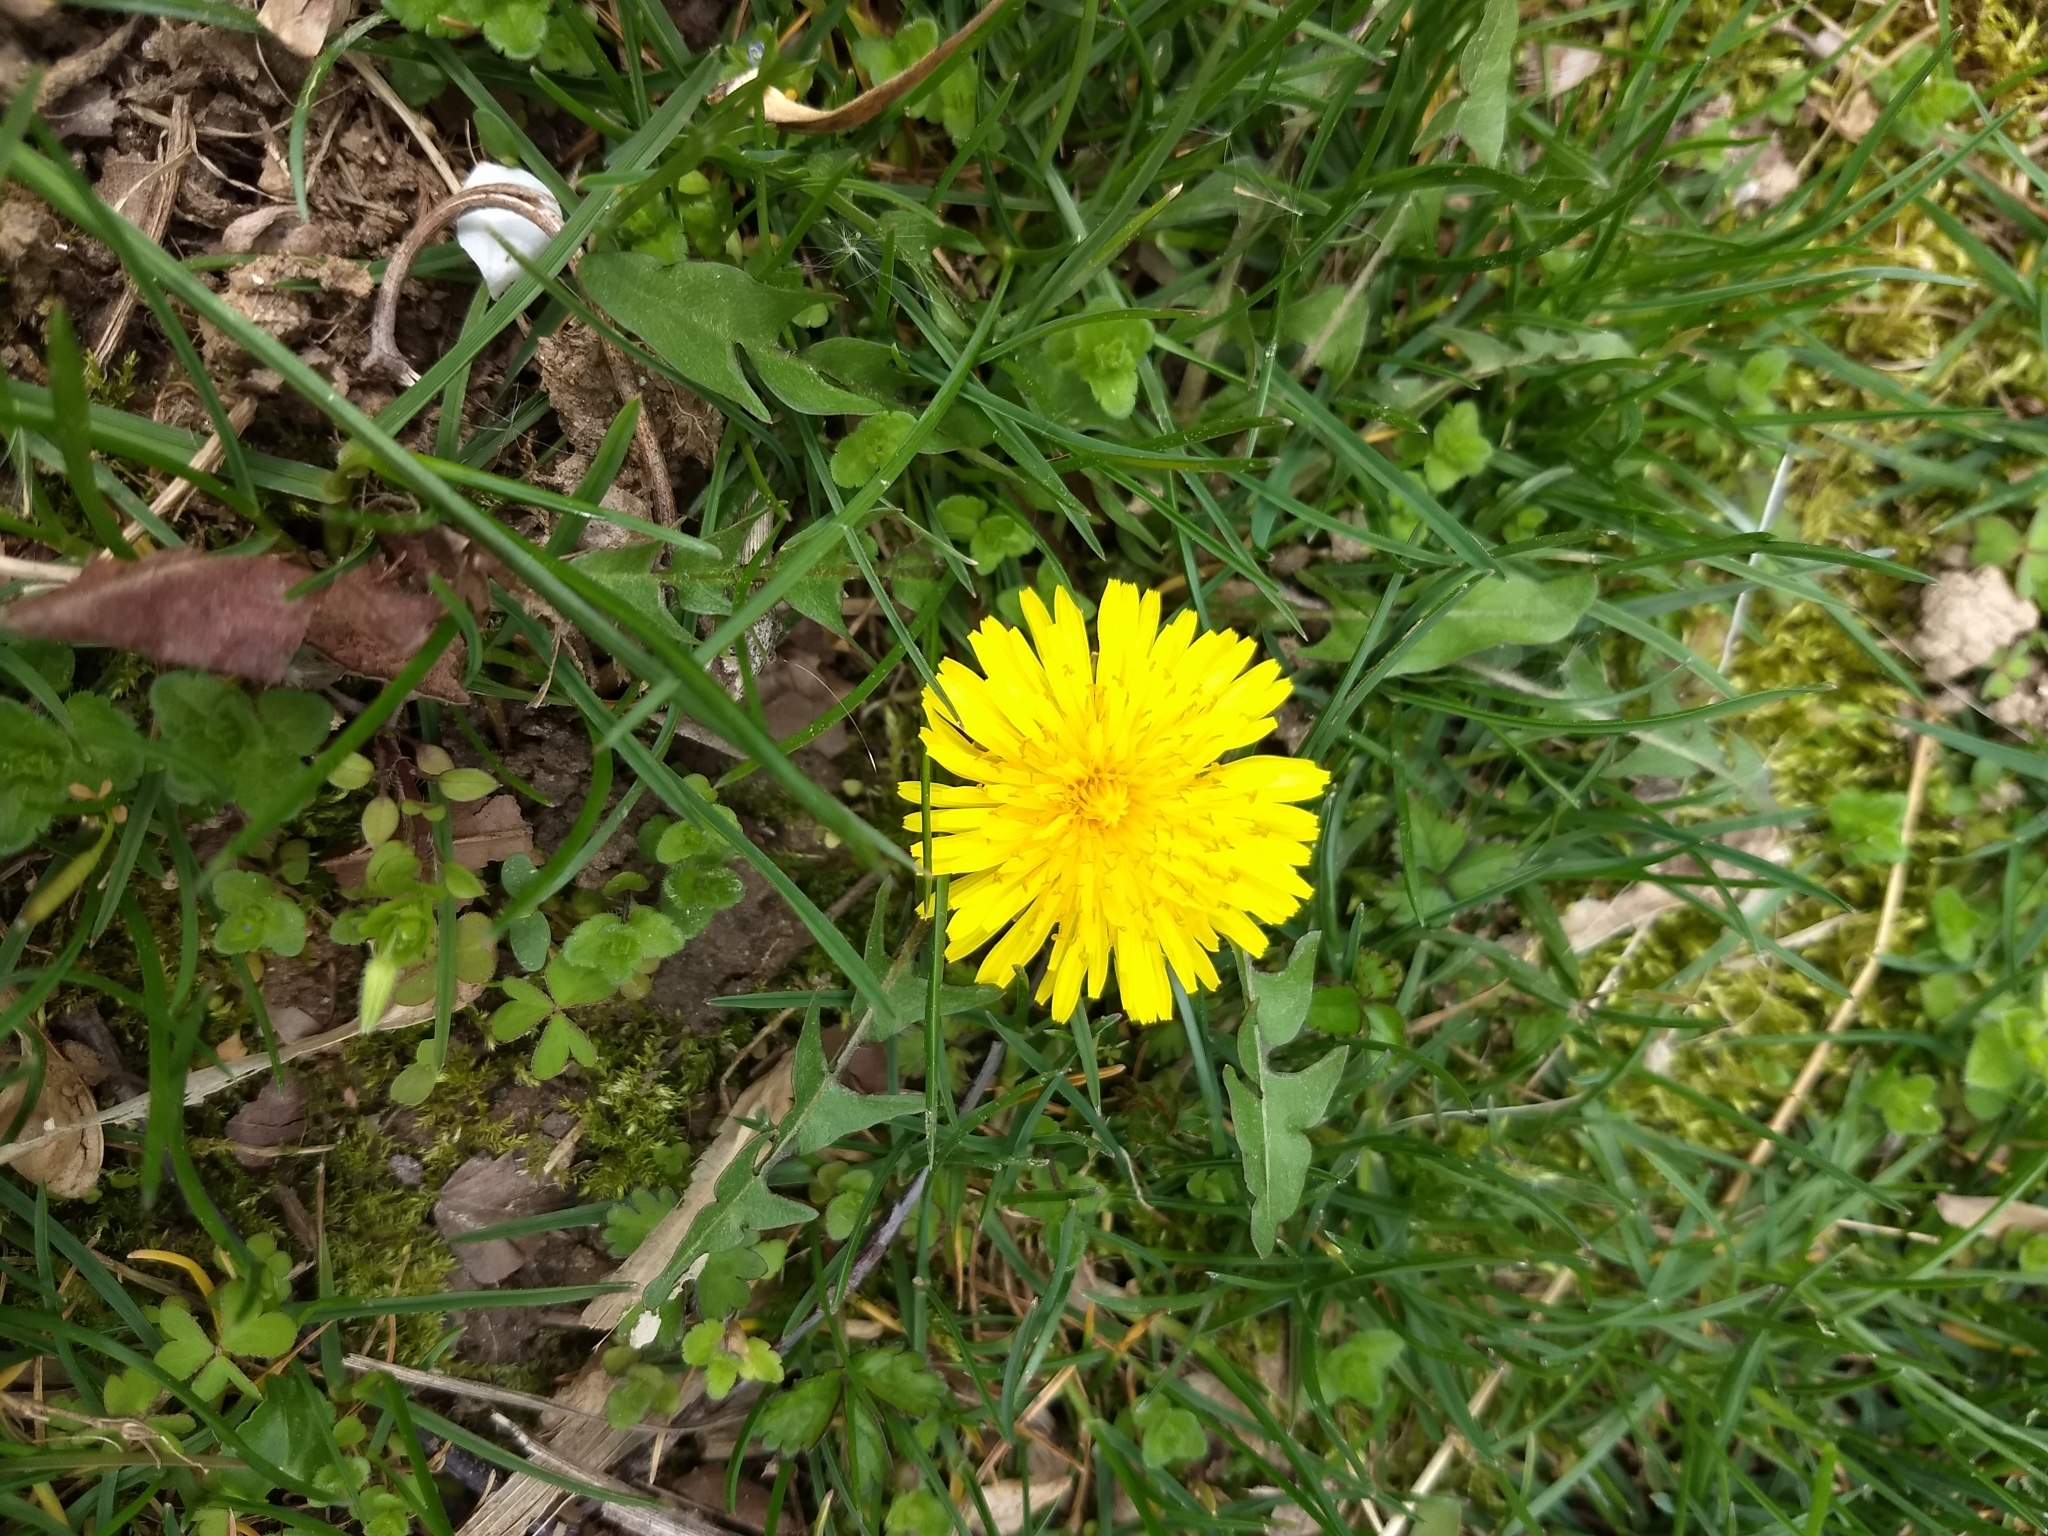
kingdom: Plantae
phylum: Tracheophyta
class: Magnoliopsida
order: Asterales
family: Asteraceae
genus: Taraxacum
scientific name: Taraxacum officinale
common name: Common dandelion
